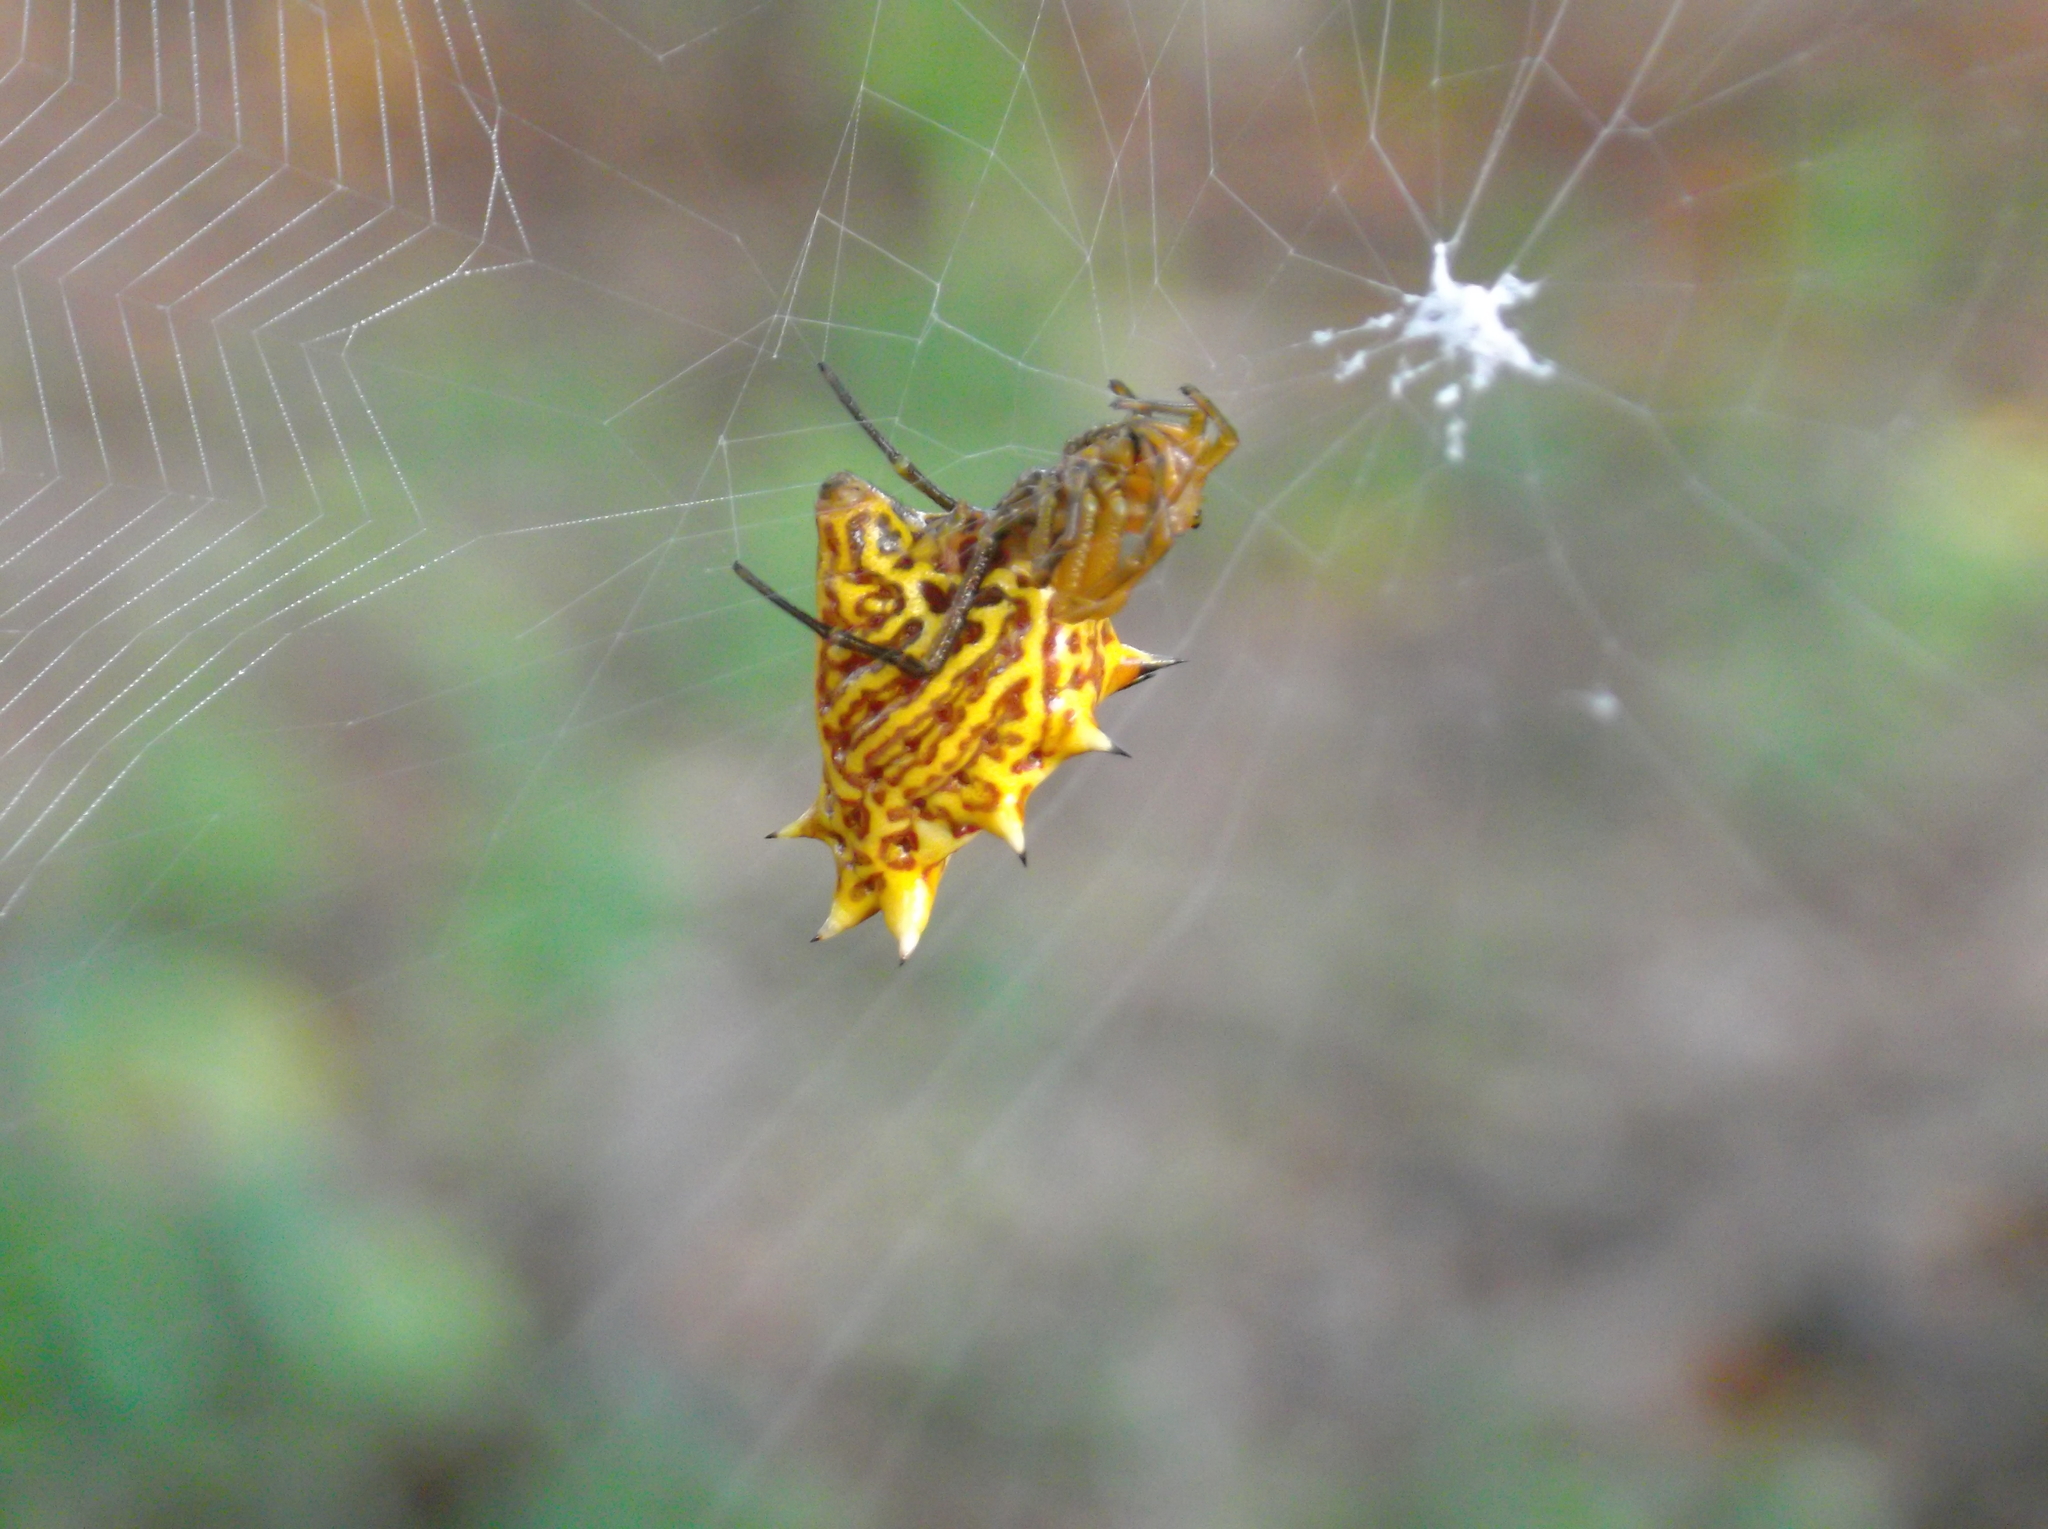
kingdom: Animalia
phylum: Arthropoda
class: Arachnida
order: Araneae
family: Araneidae
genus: Micrathena
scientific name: Micrathena gracilis
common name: Orb weavers
